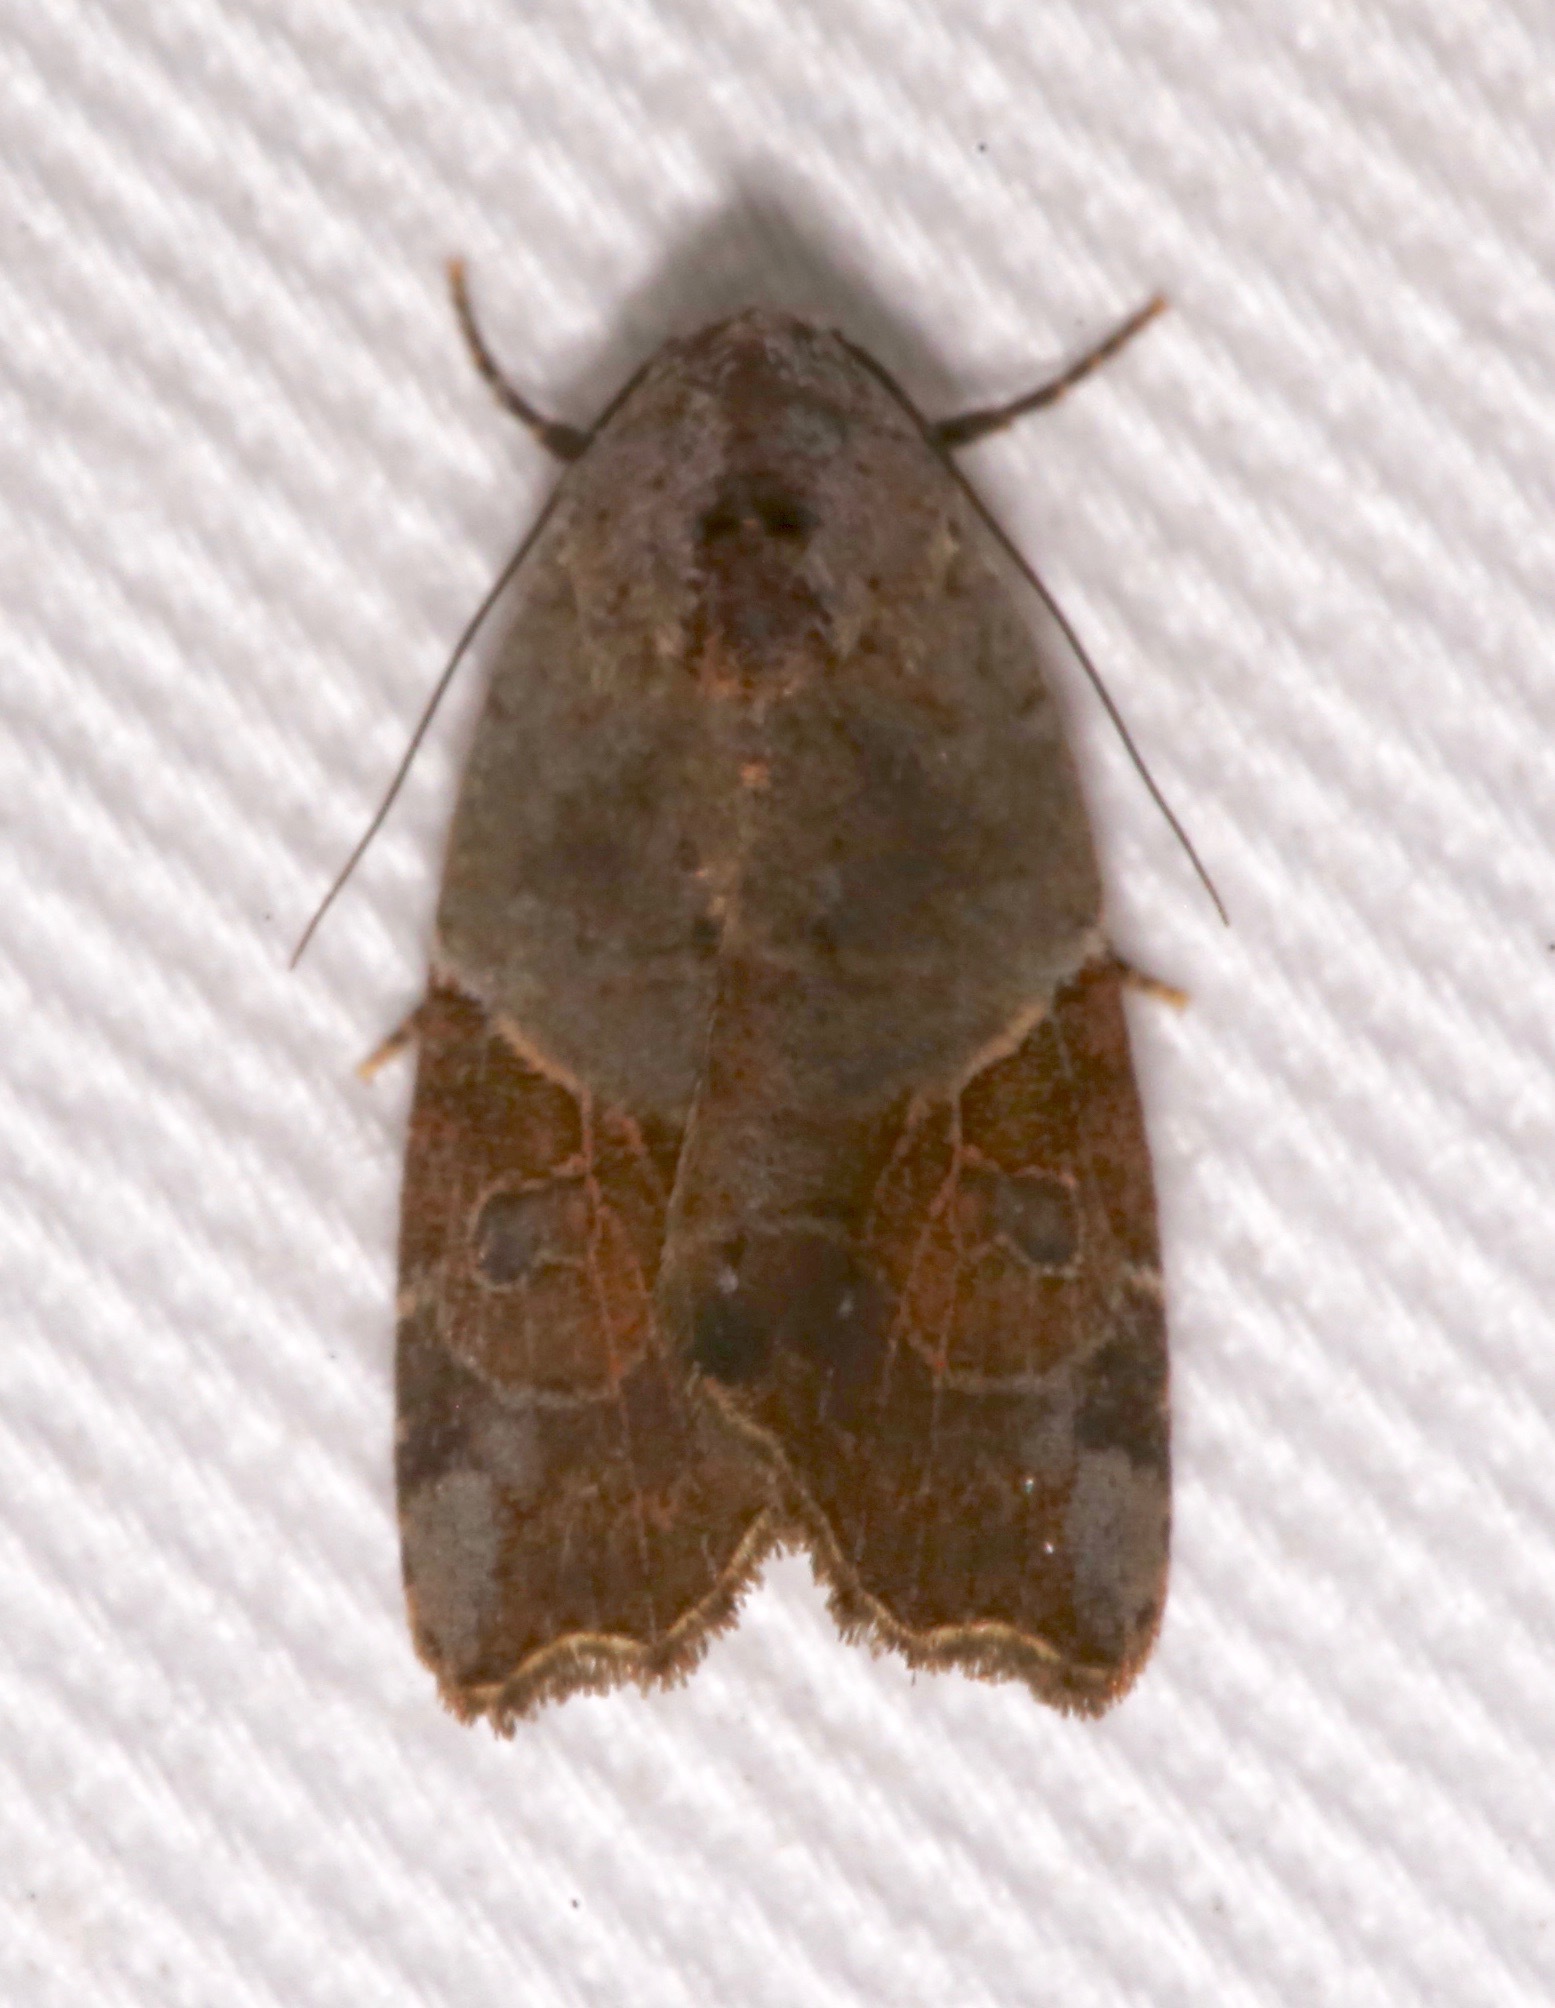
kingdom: Animalia
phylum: Arthropoda
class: Insecta
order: Lepidoptera
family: Noctuidae
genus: Gonodes
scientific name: Gonodes liquida
